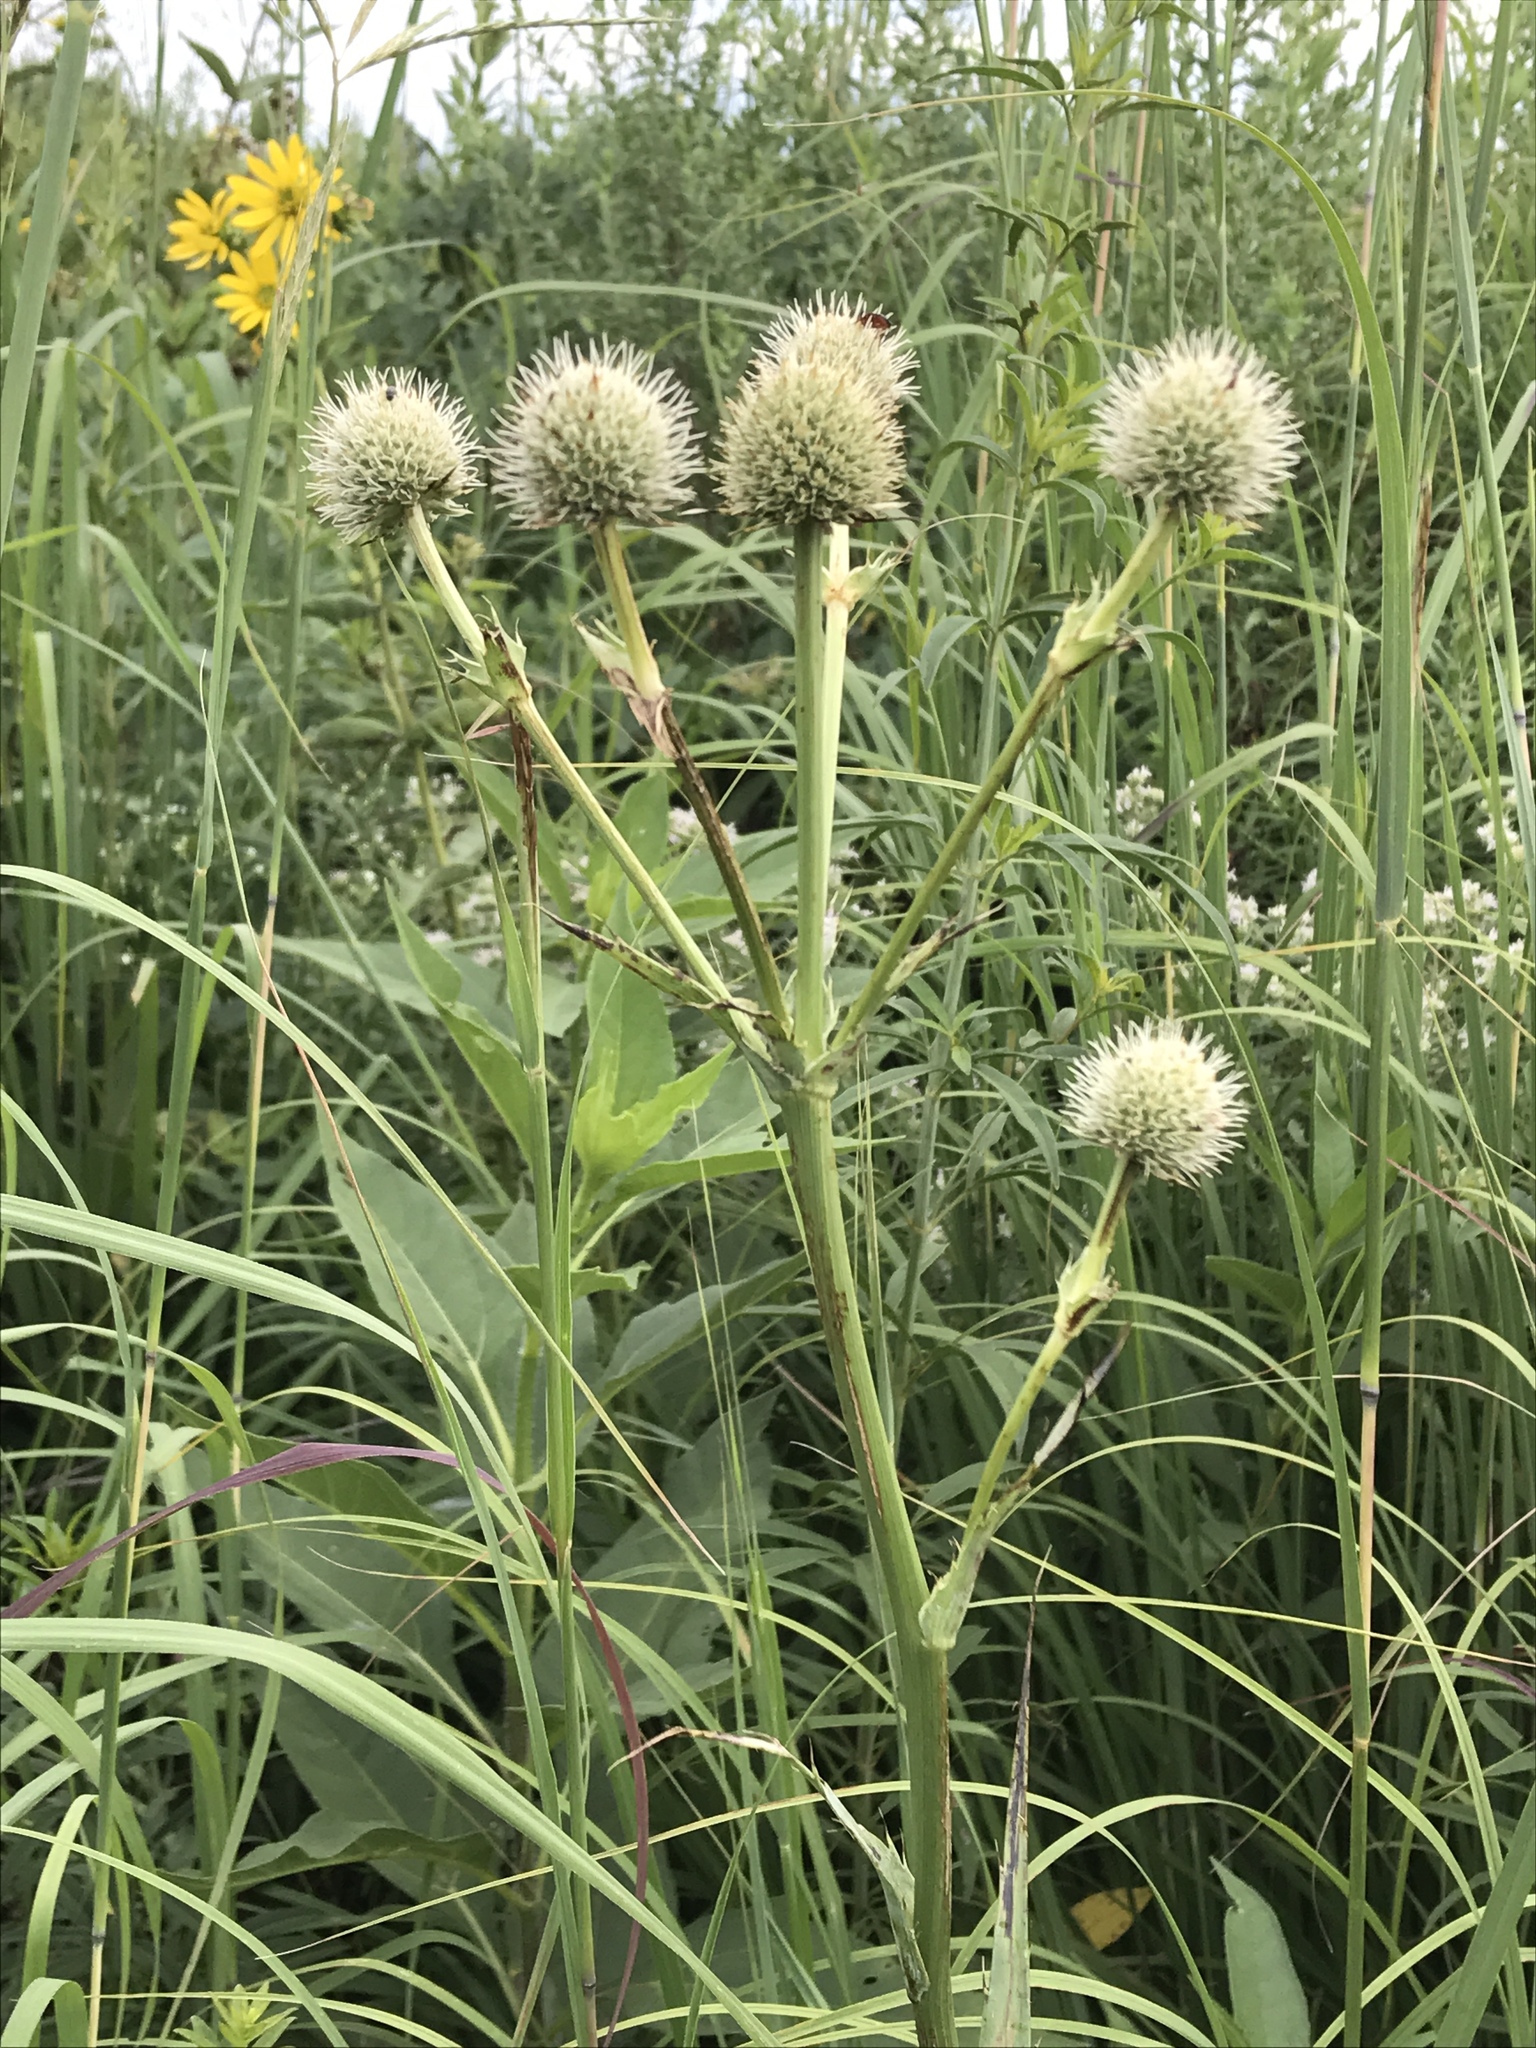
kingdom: Plantae
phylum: Tracheophyta
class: Magnoliopsida
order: Apiales
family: Apiaceae
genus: Eryngium
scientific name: Eryngium yuccifolium
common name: Button eryngo
